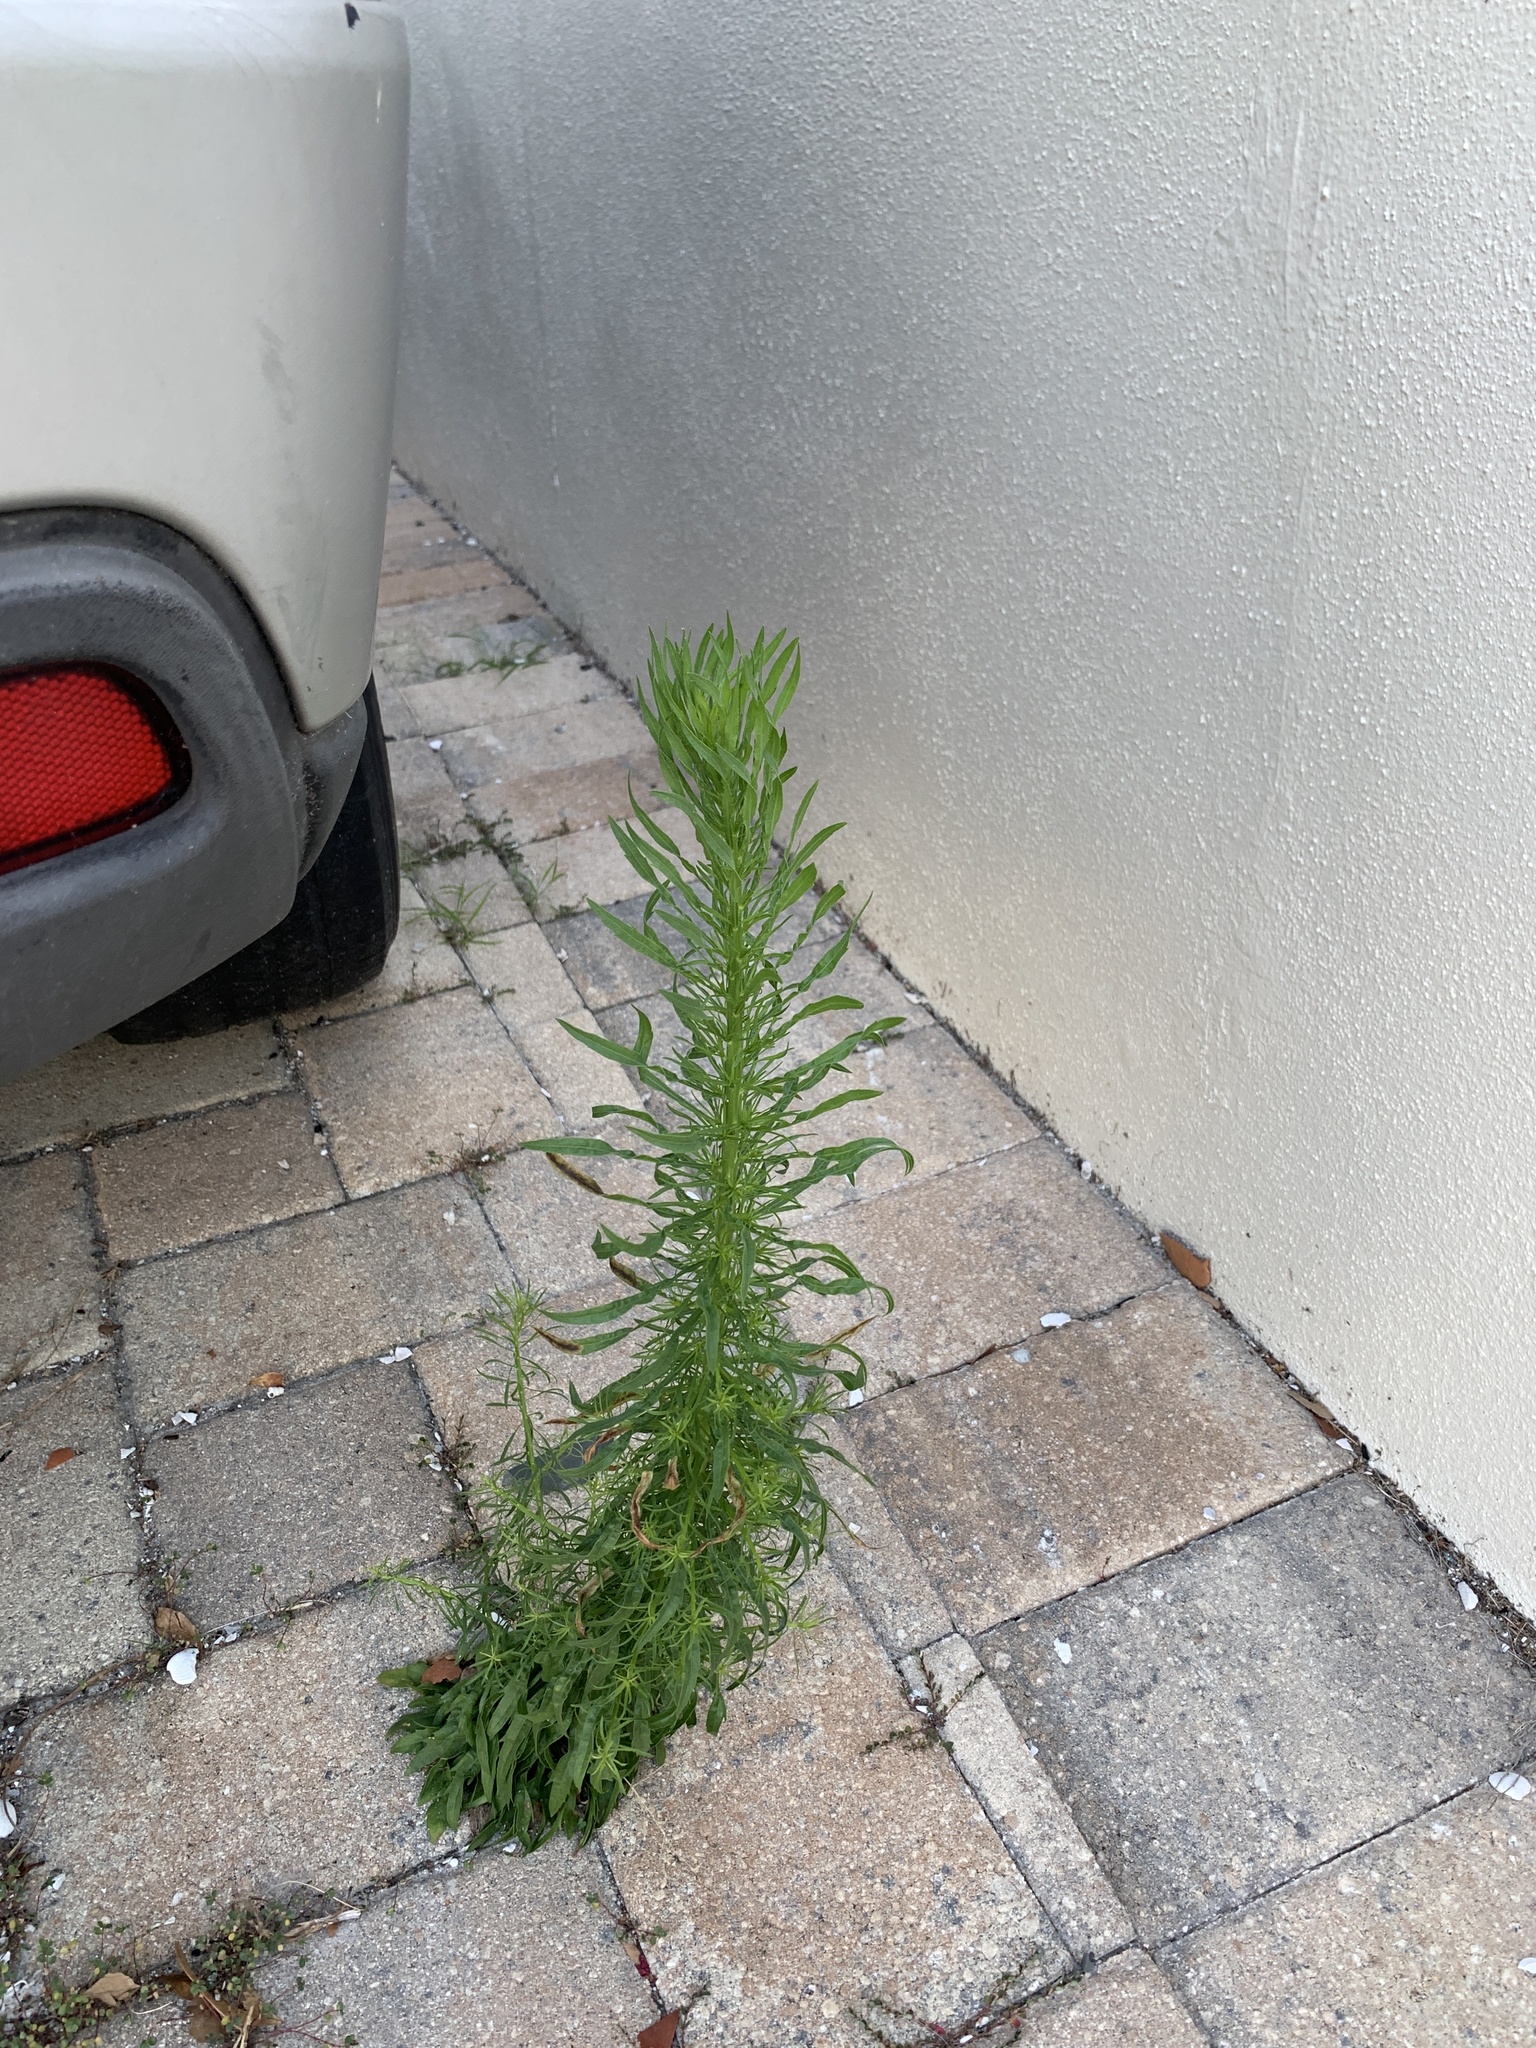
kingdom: Plantae
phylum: Tracheophyta
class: Magnoliopsida
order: Asterales
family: Asteraceae
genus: Erigeron
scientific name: Erigeron canadensis
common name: Canadian fleabane
